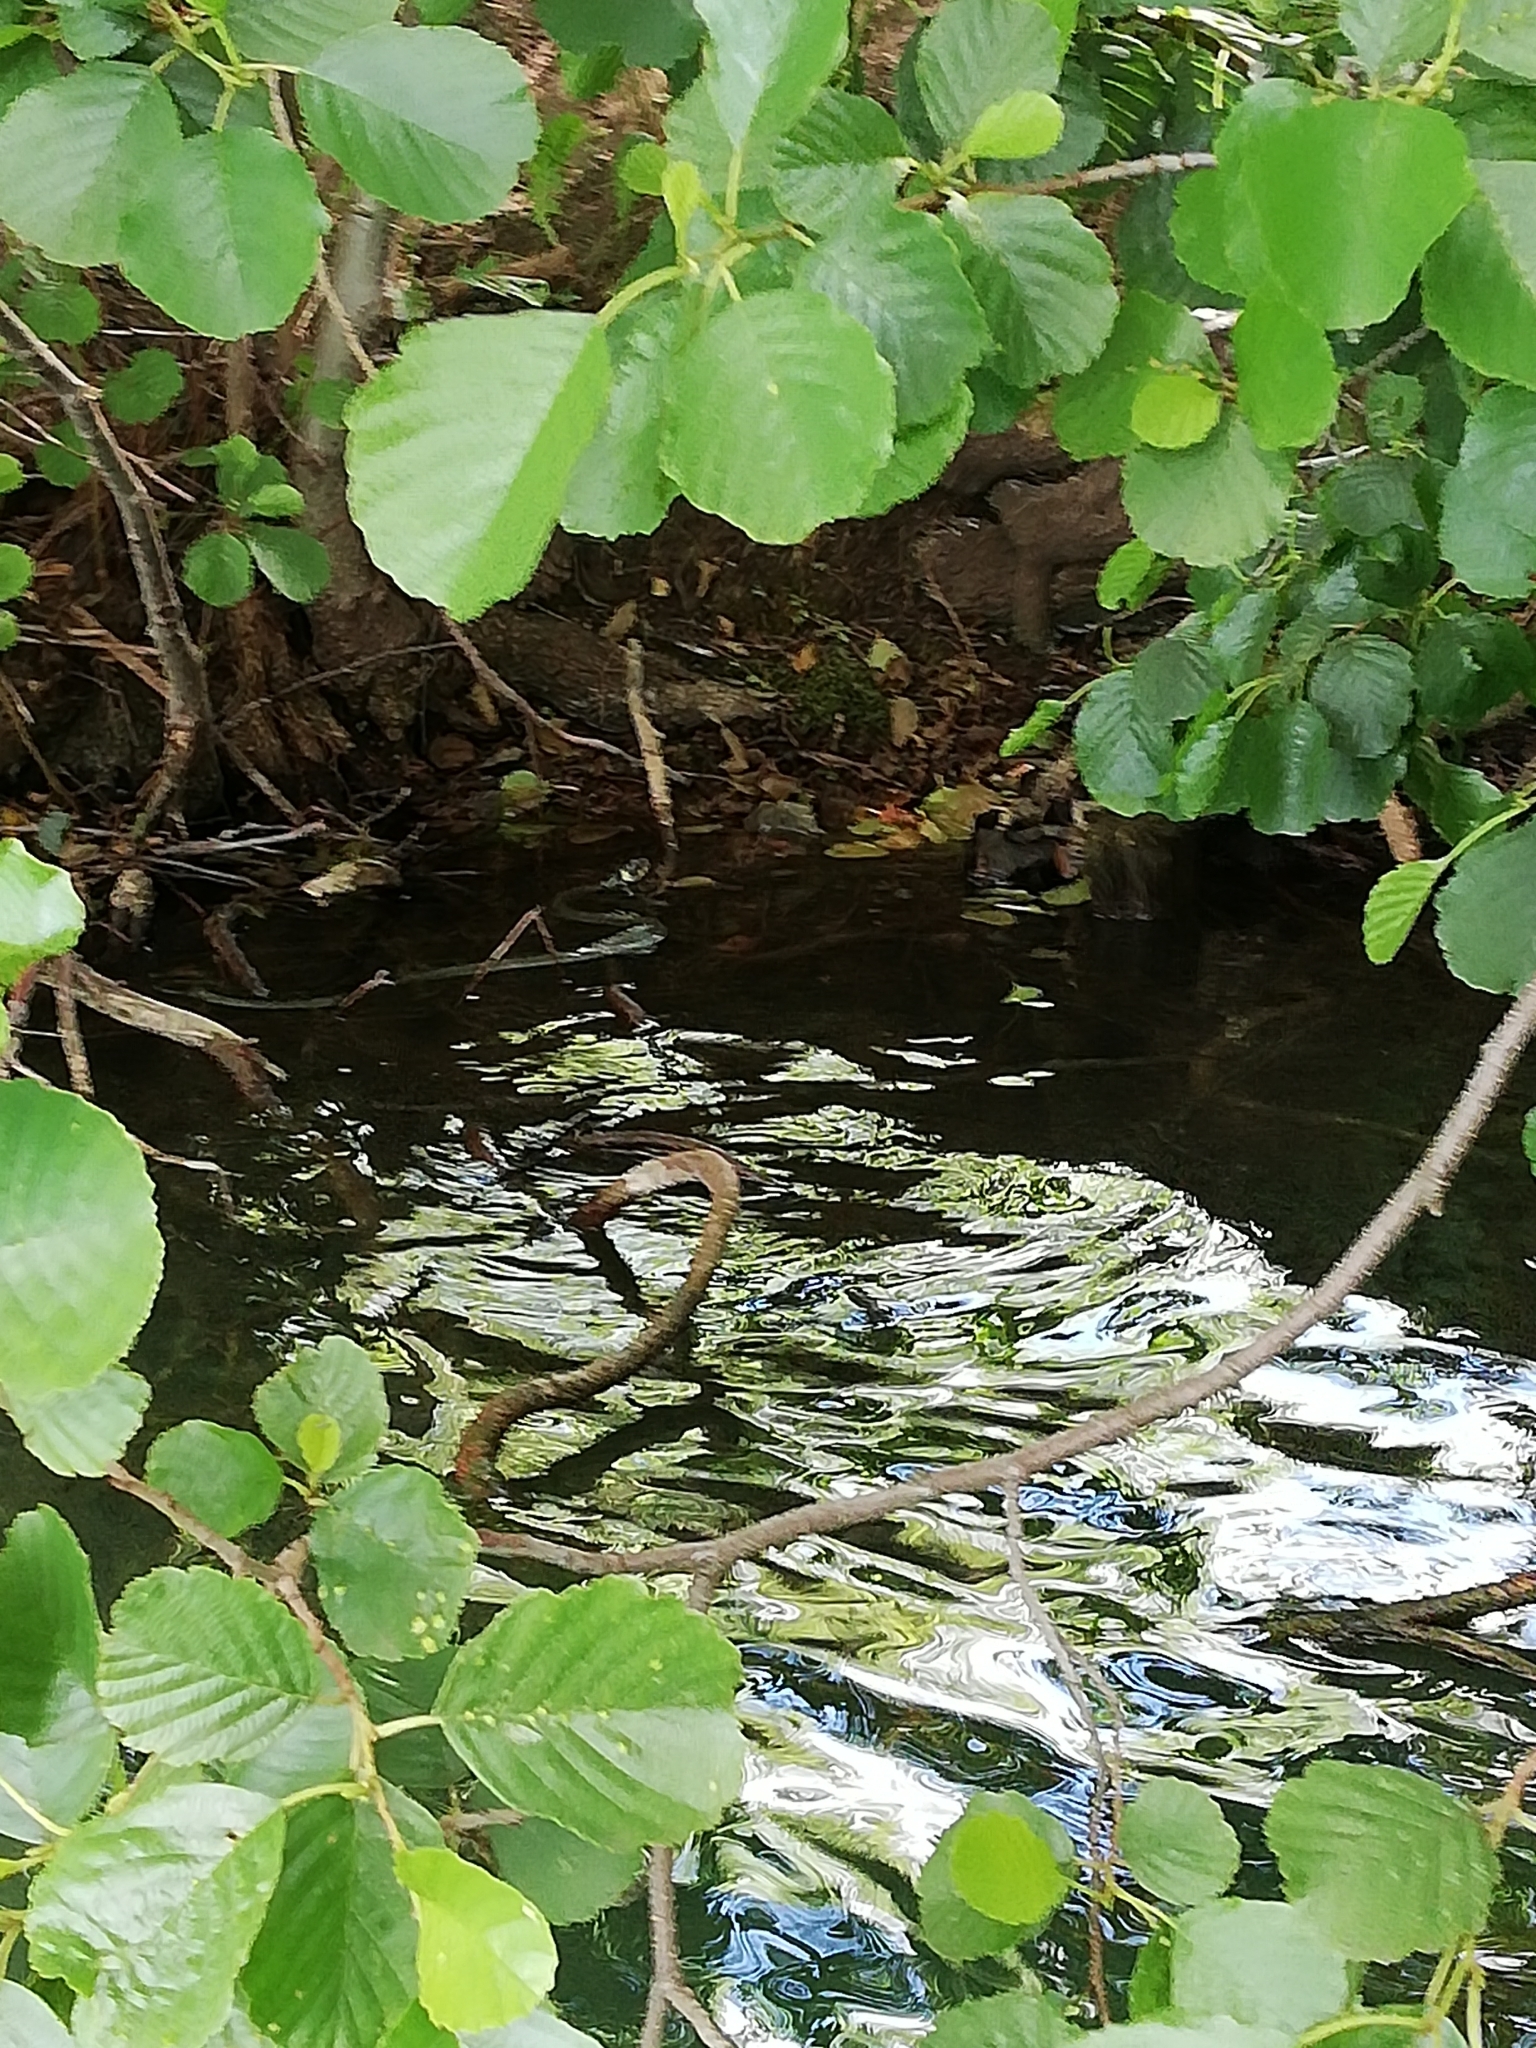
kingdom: Animalia
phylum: Chordata
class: Squamata
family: Colubridae
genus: Natrix
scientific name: Natrix natrix
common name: Grass snake
